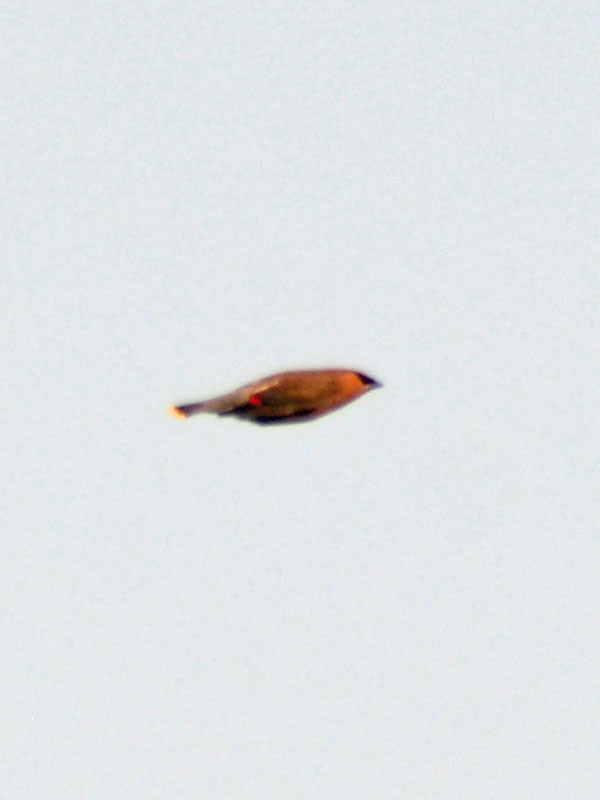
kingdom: Animalia
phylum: Chordata
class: Aves
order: Passeriformes
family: Bombycillidae
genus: Bombycilla
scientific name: Bombycilla cedrorum
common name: Cedar waxwing
